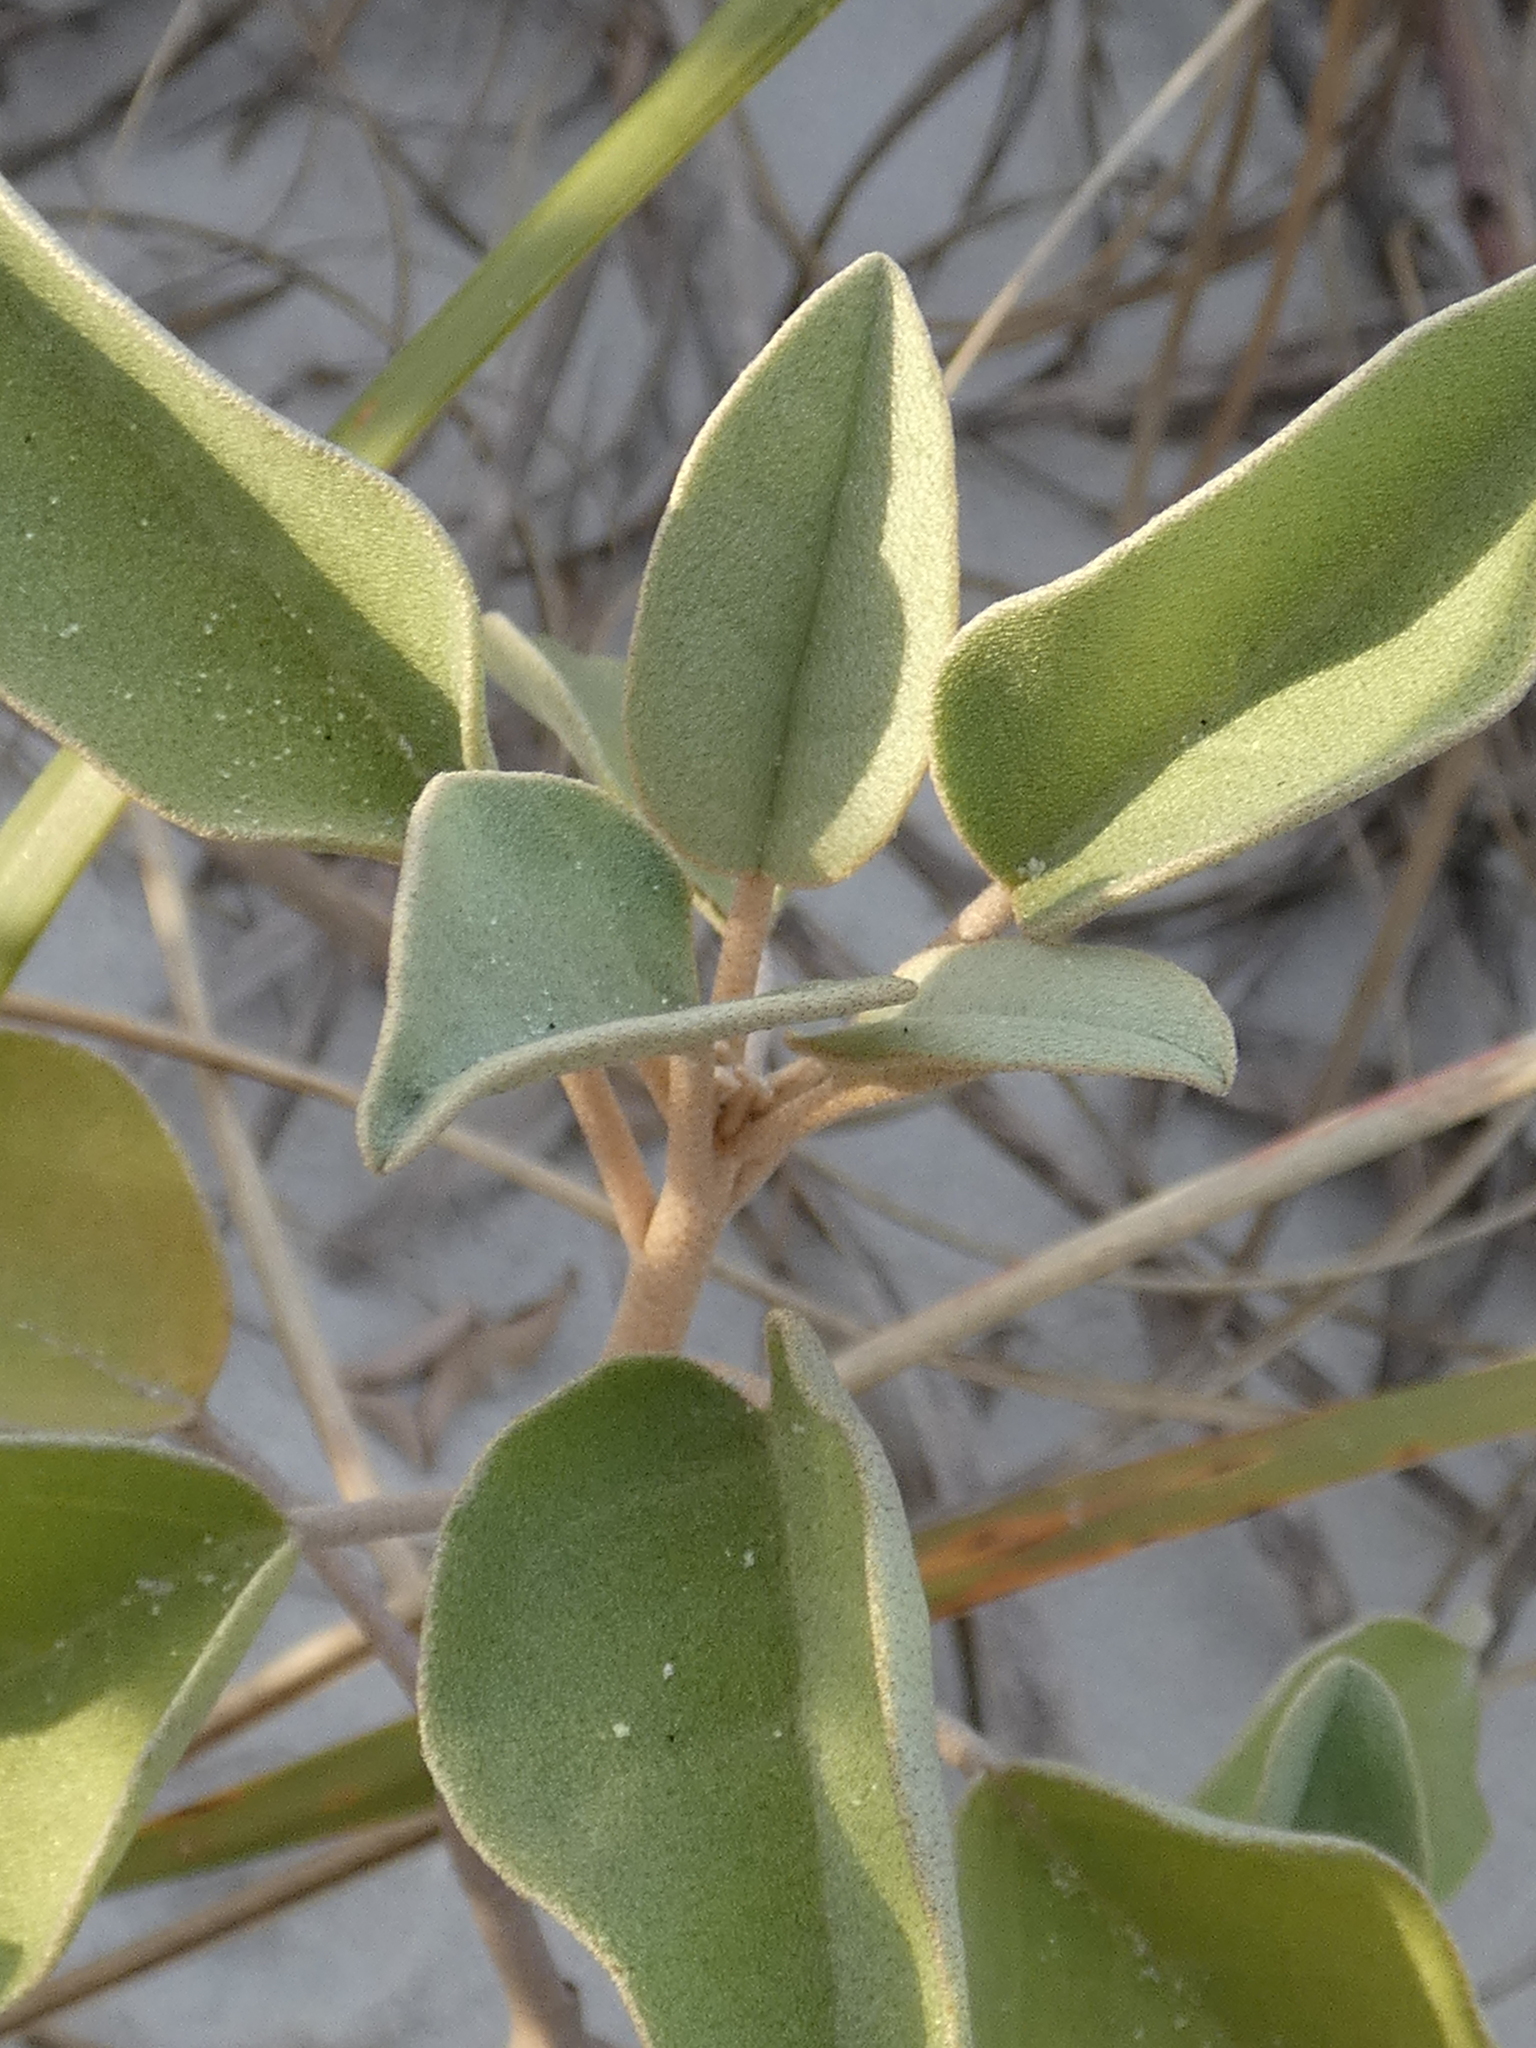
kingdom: Plantae
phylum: Tracheophyta
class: Magnoliopsida
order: Malpighiales
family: Euphorbiaceae
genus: Croton
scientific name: Croton punctatus
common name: Beach-tea
